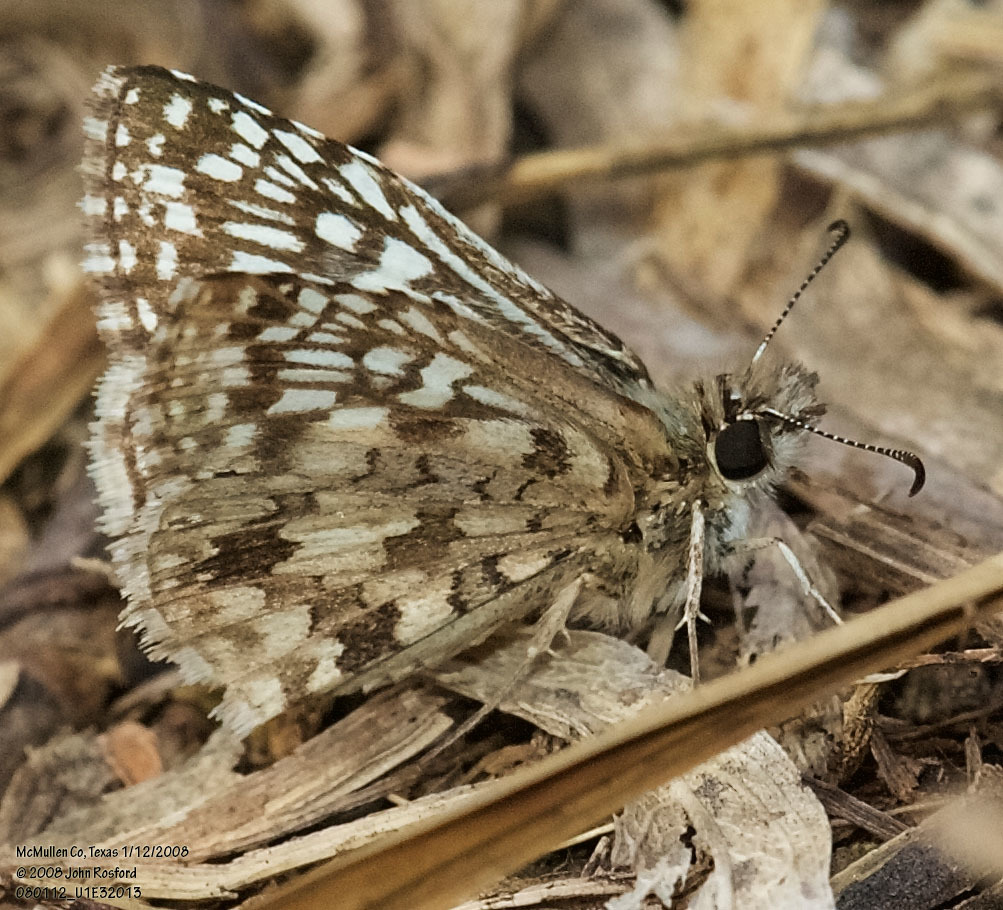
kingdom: Animalia
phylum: Arthropoda
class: Insecta
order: Lepidoptera
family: Hesperiidae
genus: Pyrgus
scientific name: Pyrgus oileus
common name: Tropical checkered-skipper
